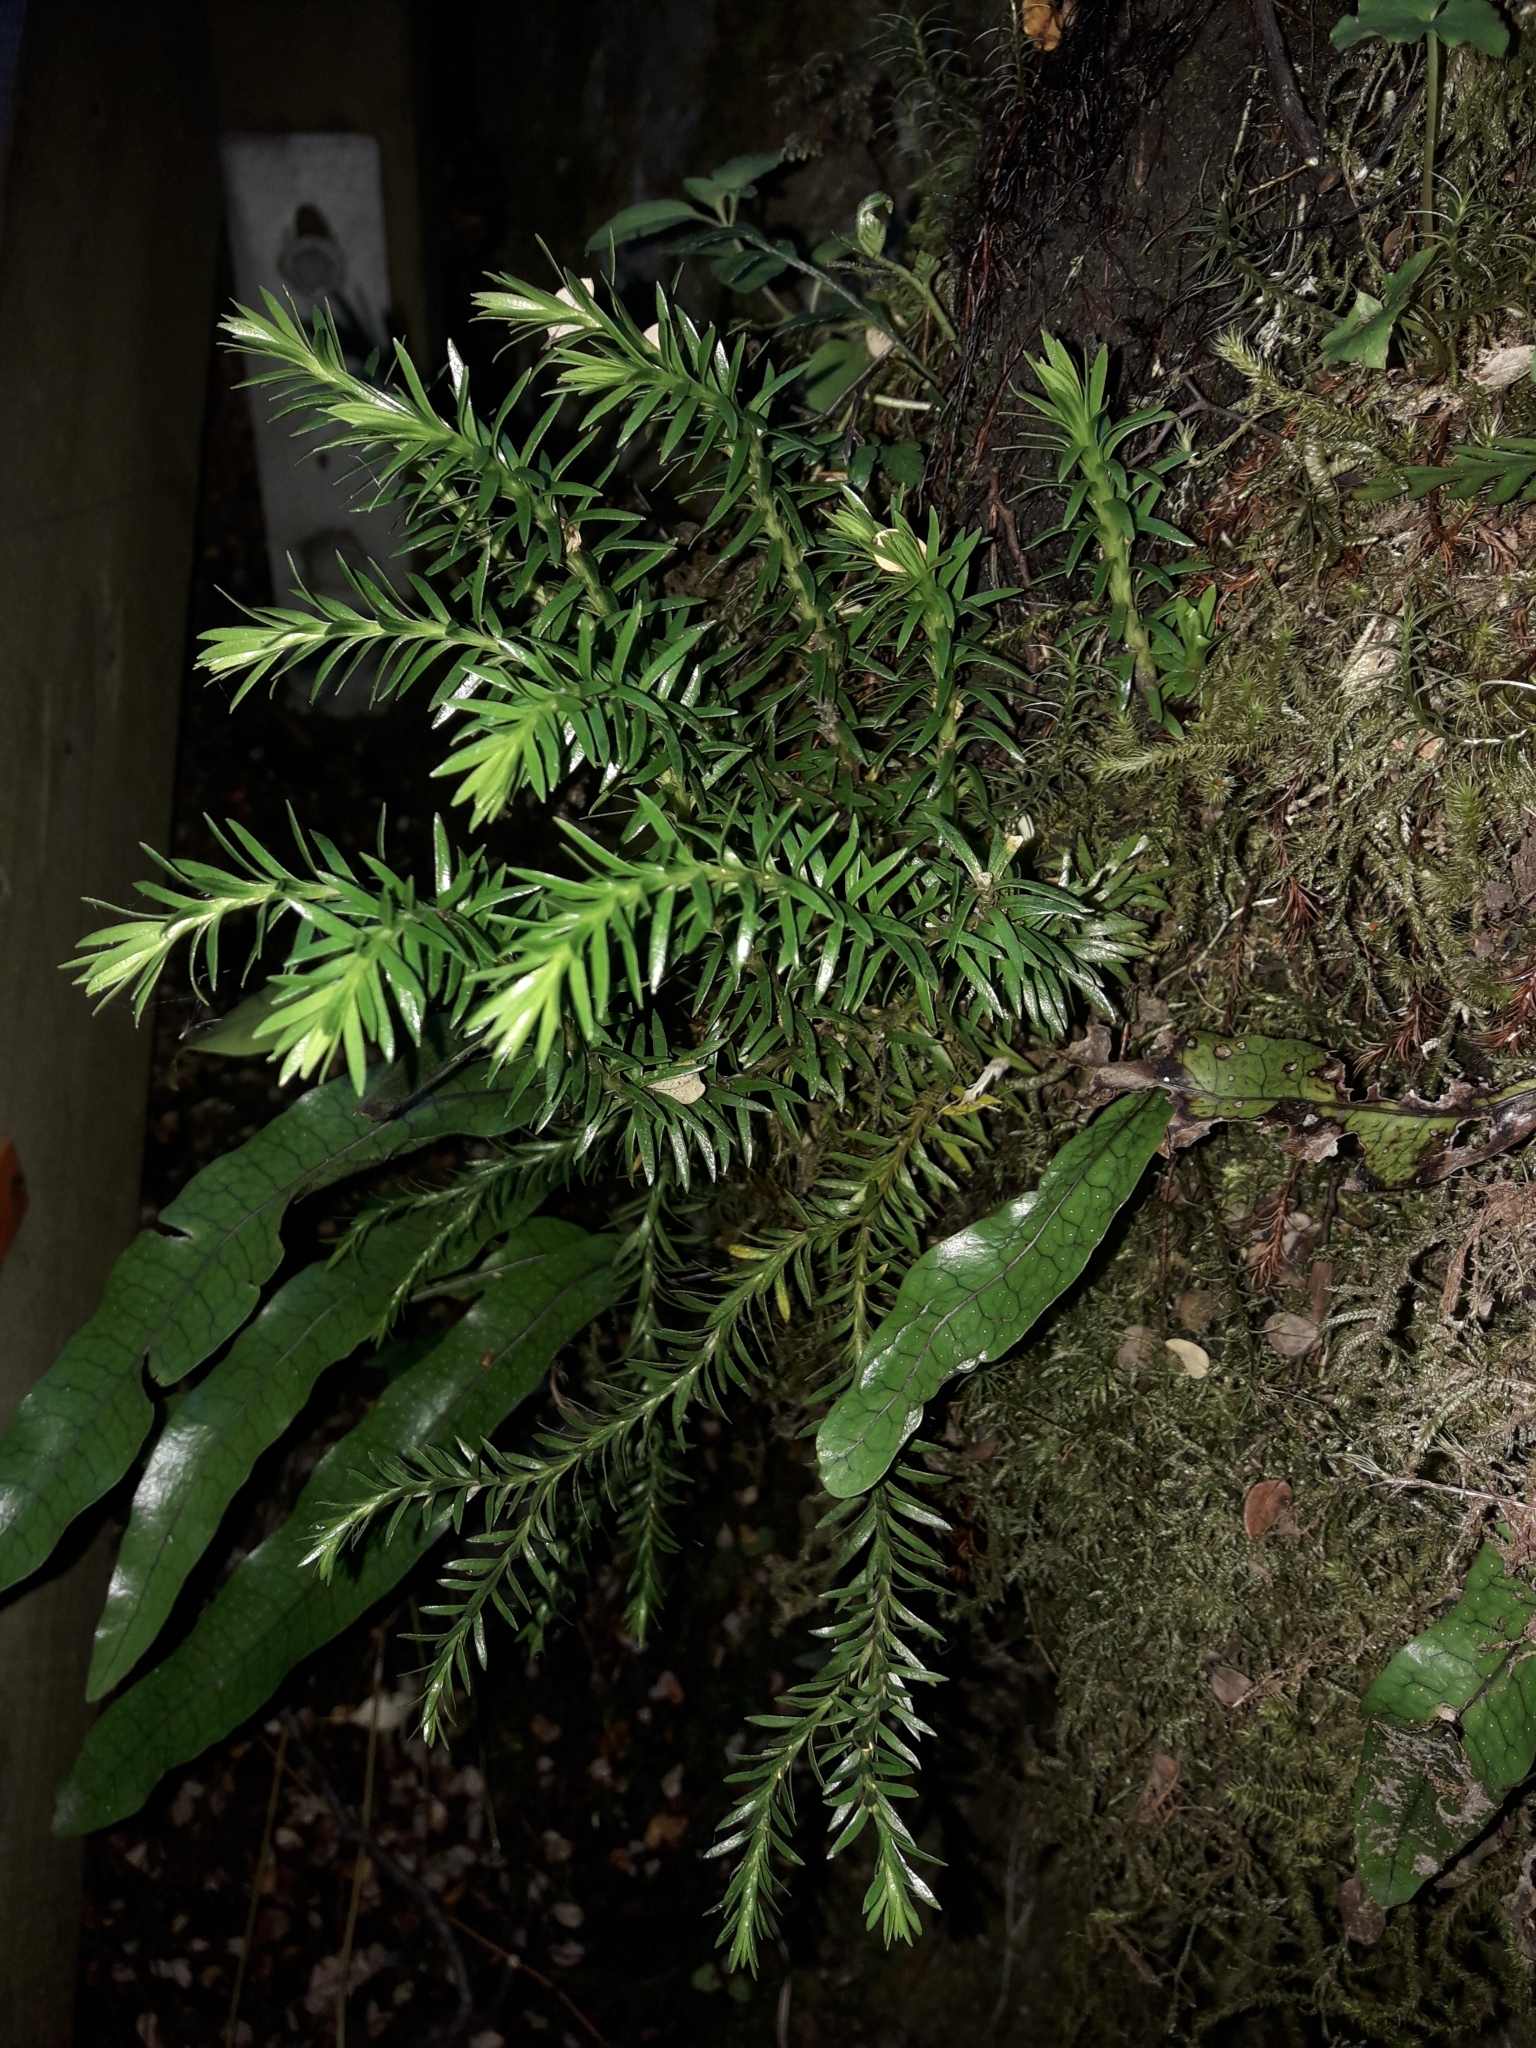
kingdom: Plantae
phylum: Tracheophyta
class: Lycopodiopsida
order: Lycopodiales
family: Lycopodiaceae
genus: Phlegmariurus
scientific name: Phlegmariurus varius
